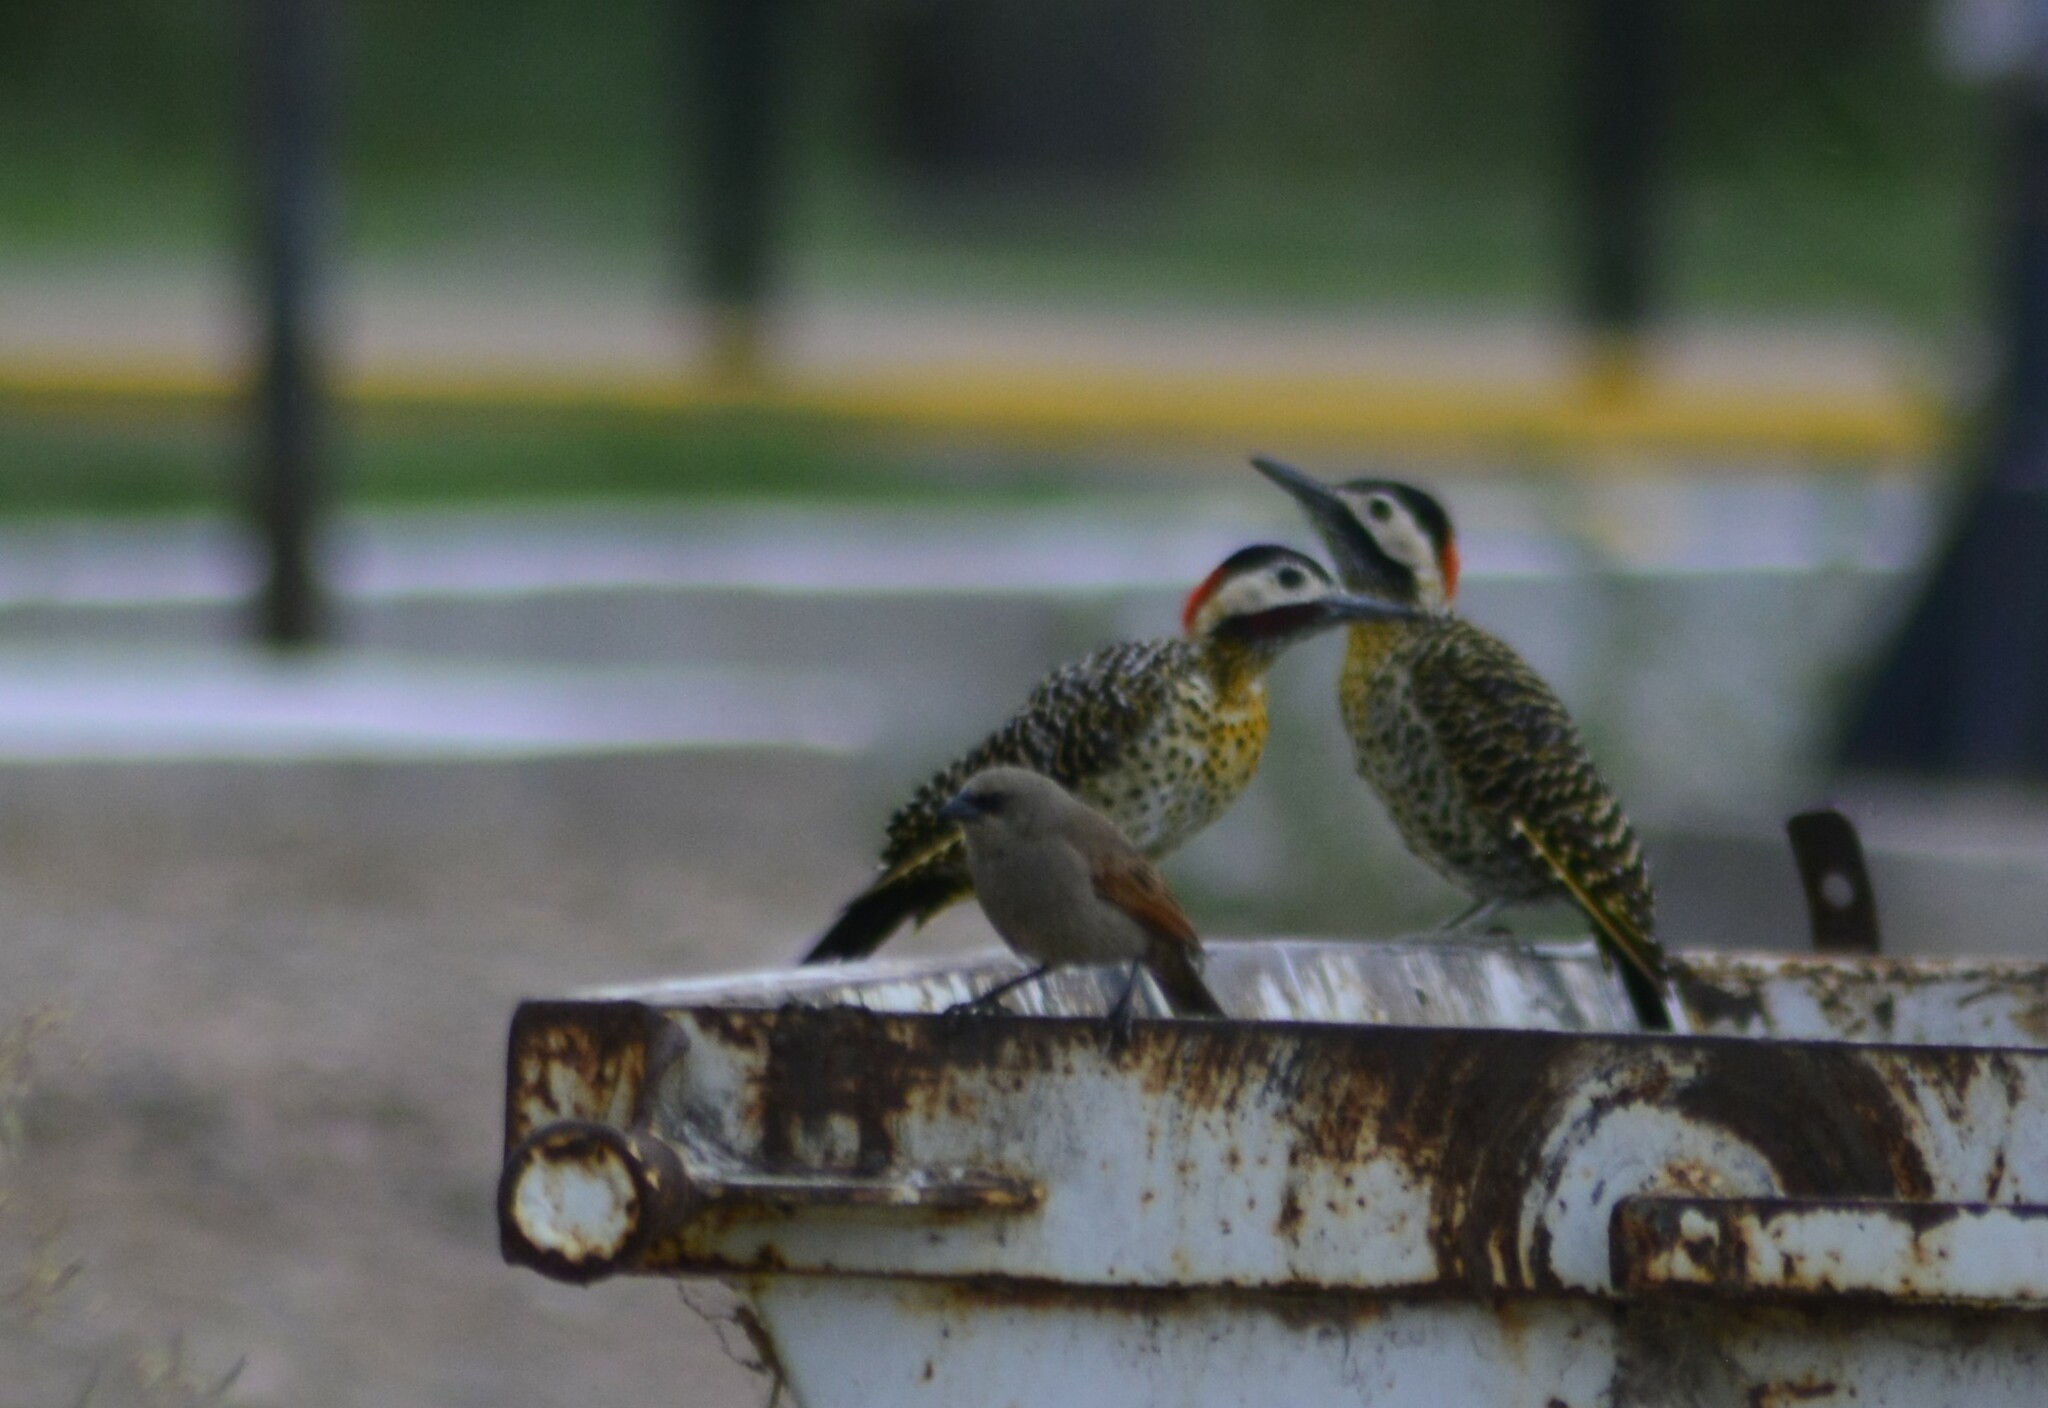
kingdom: Animalia
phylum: Chordata
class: Aves
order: Piciformes
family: Picidae
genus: Colaptes
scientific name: Colaptes melanochloros
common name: Green-barred woodpecker
